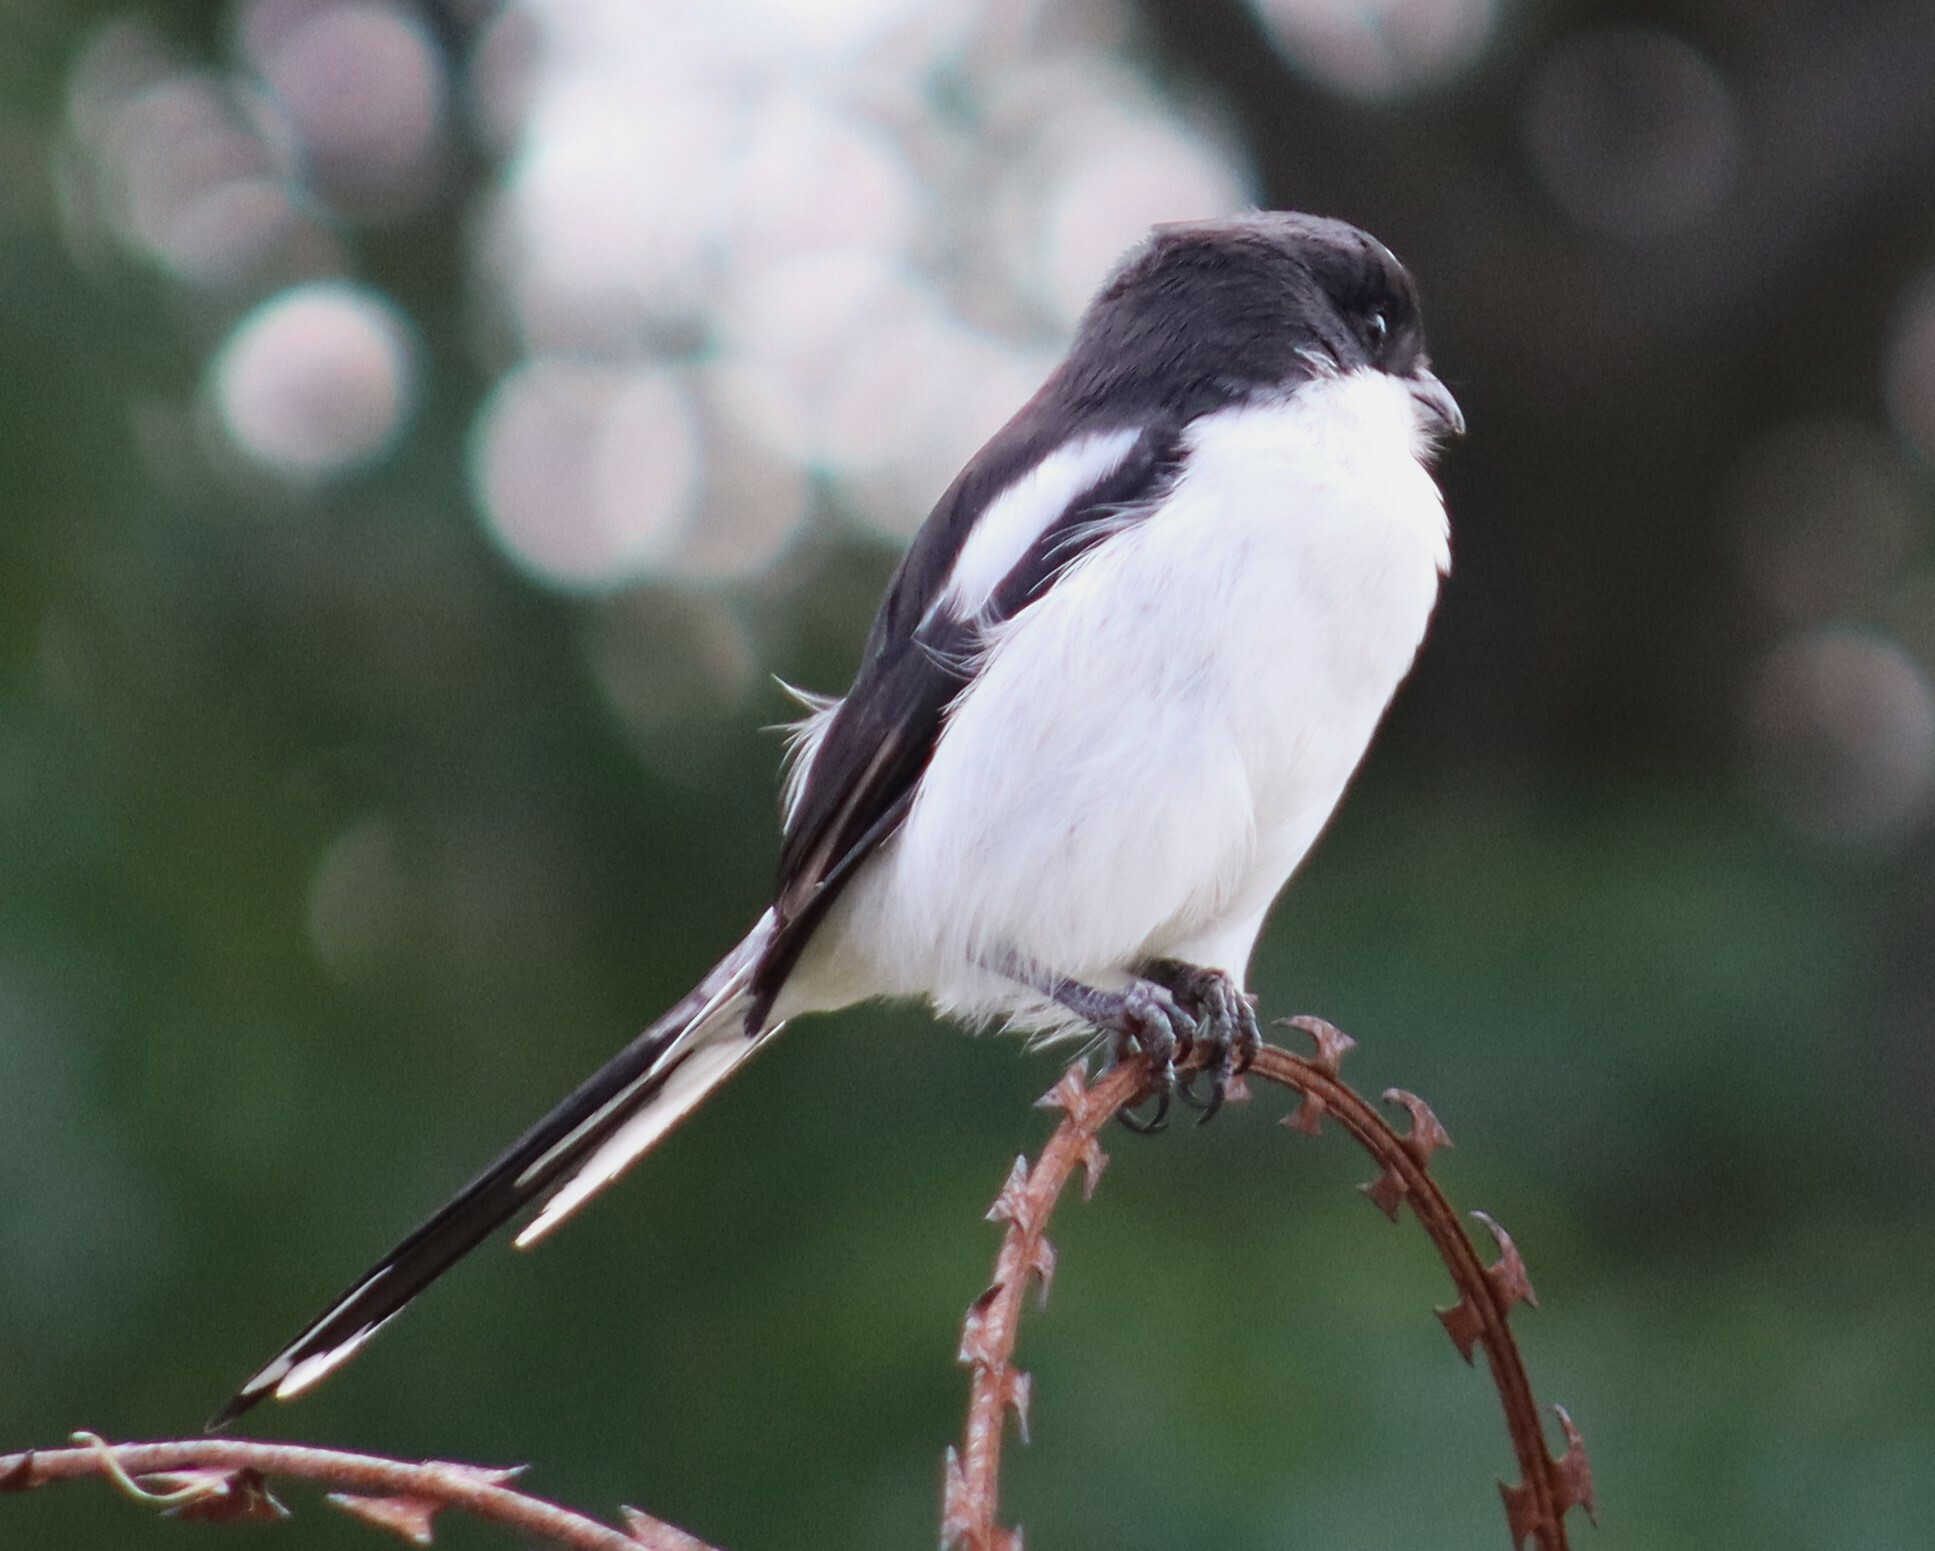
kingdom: Animalia
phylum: Chordata
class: Aves
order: Passeriformes
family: Laniidae
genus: Lanius
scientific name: Lanius collaris
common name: Southern fiscal
